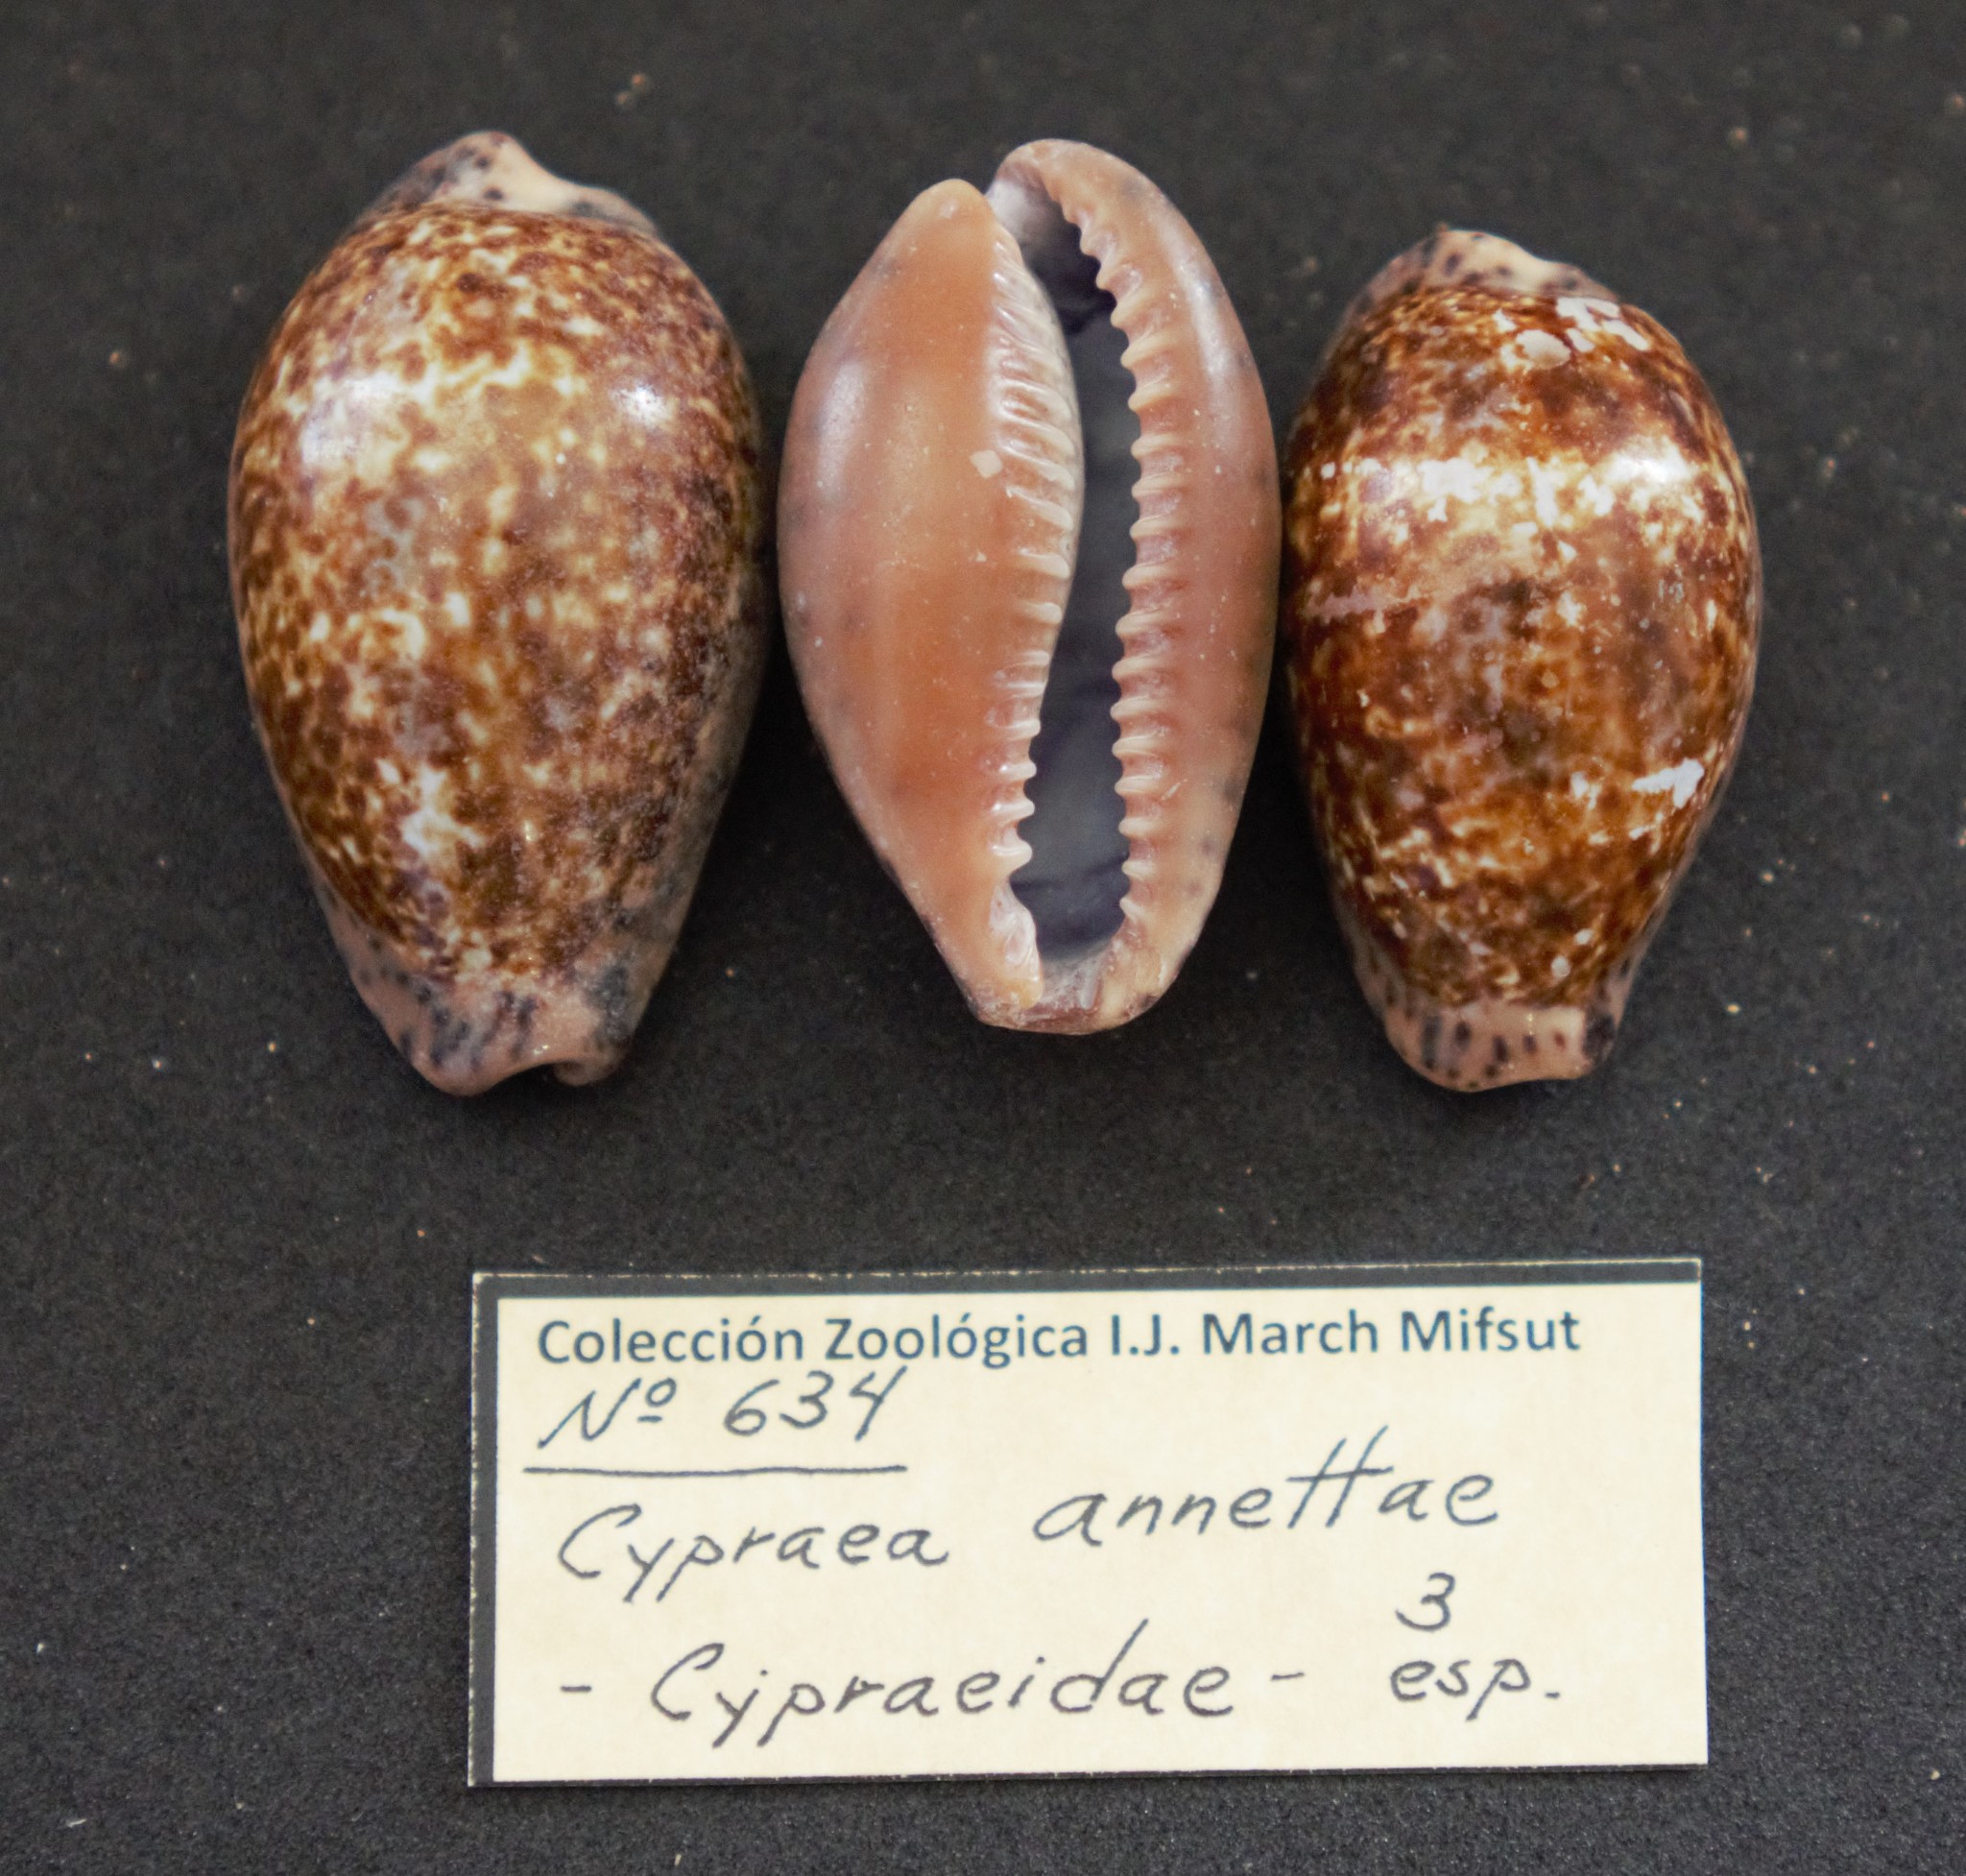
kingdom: Animalia
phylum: Mollusca
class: Gastropoda
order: Littorinimorpha
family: Cypraeidae
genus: Pseudozonaria
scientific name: Pseudozonaria annettae
